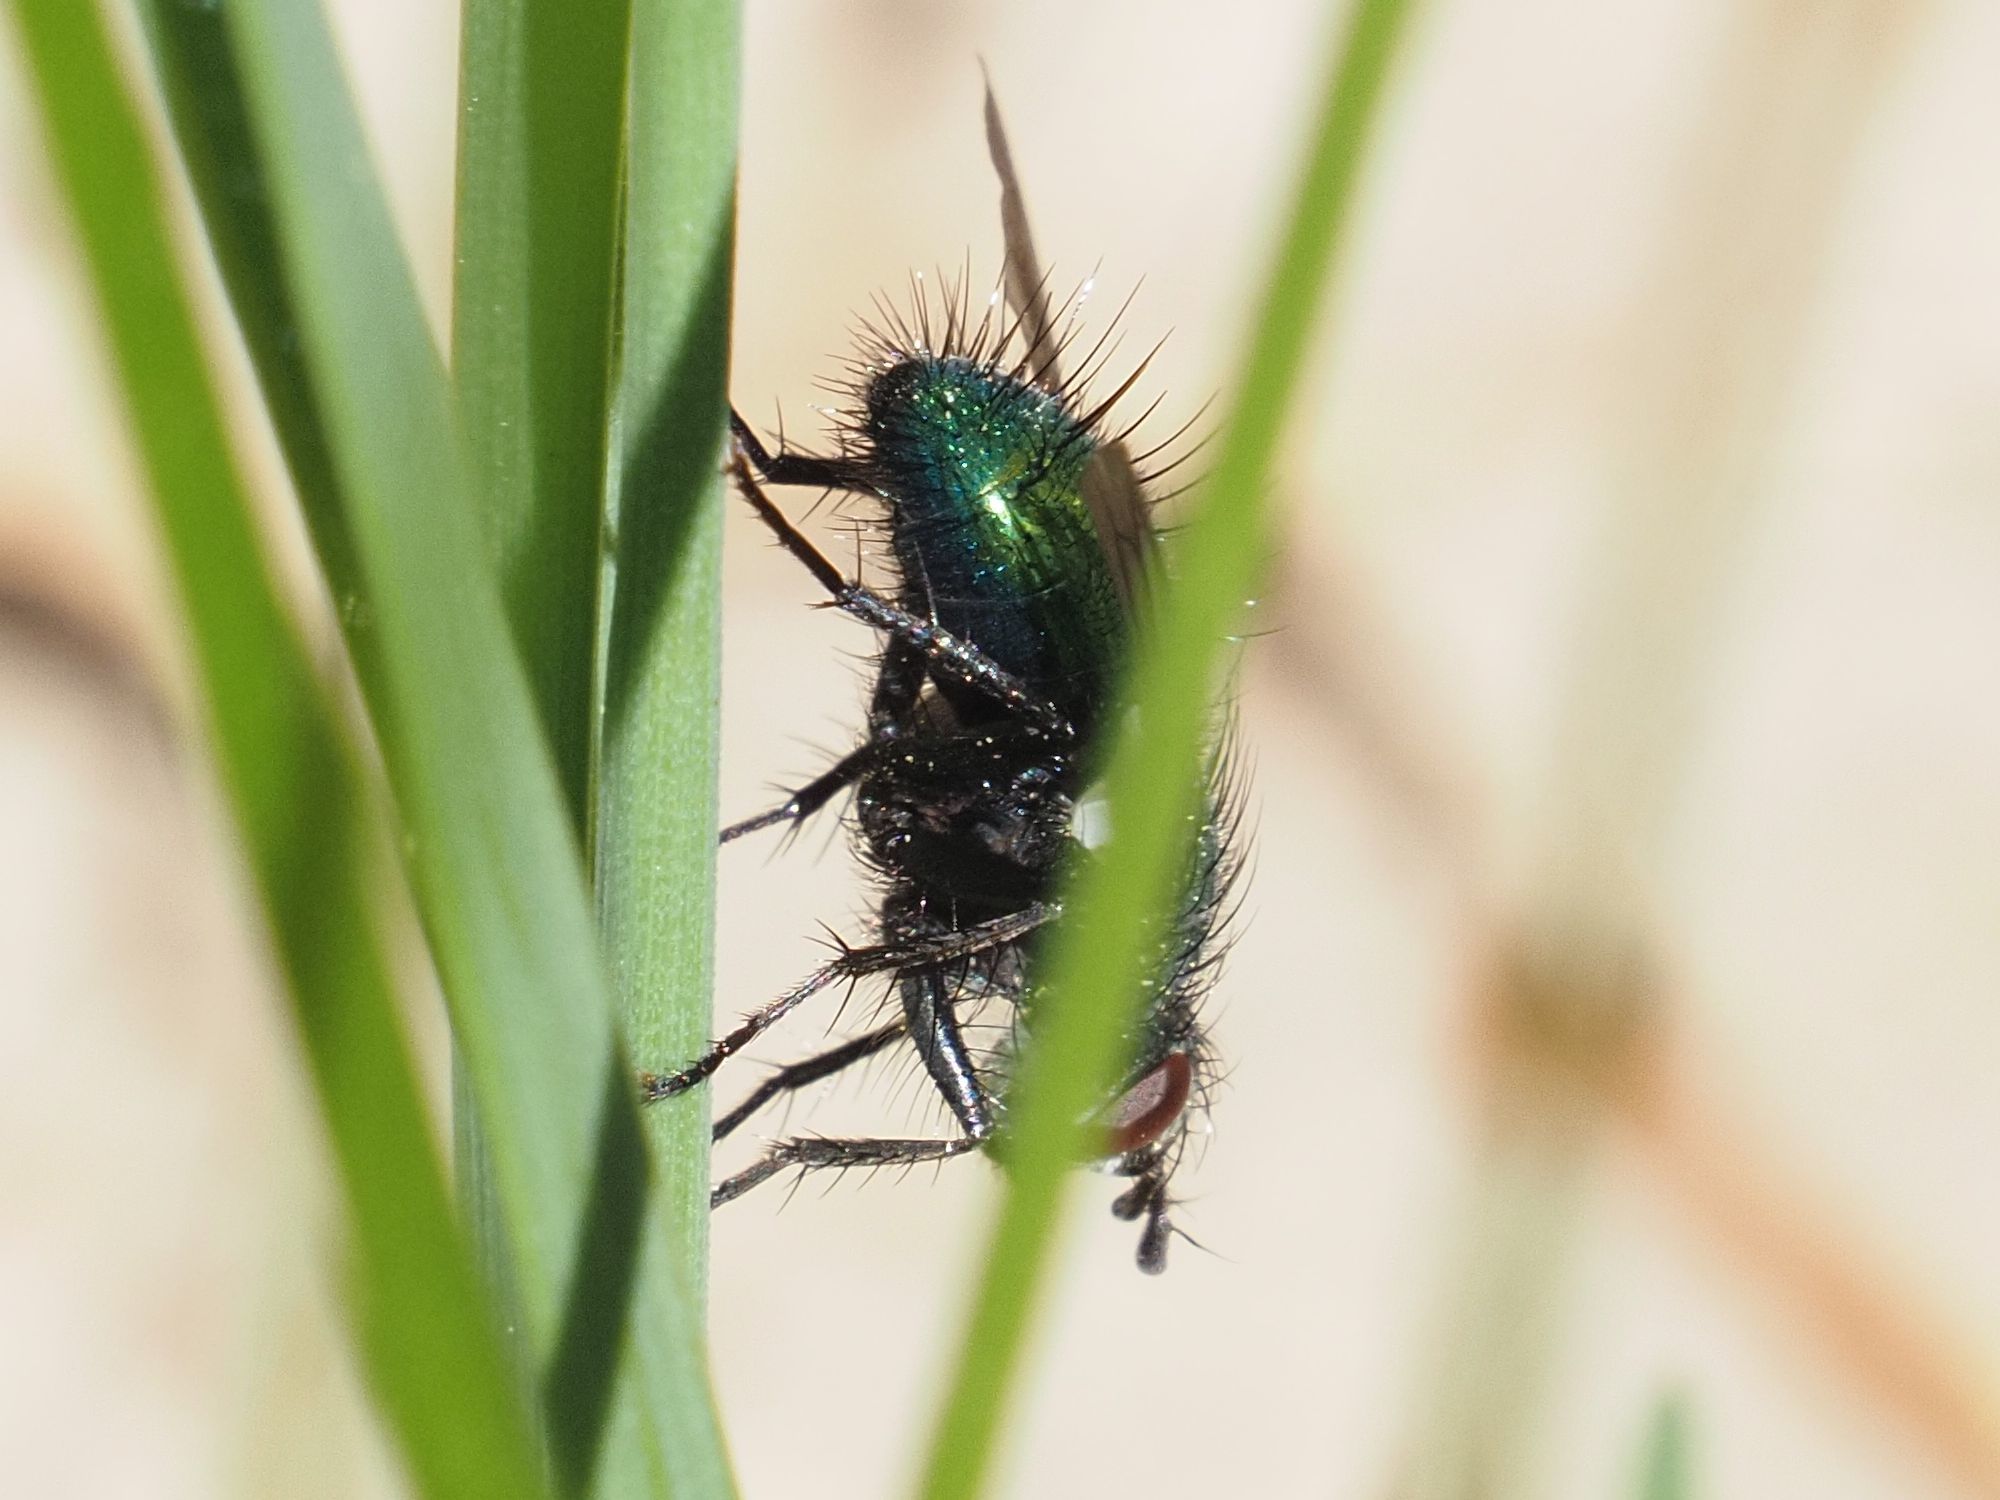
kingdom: Animalia
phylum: Arthropoda
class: Insecta
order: Diptera
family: Tachinidae
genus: Gymnocheta
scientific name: Gymnocheta viridis
